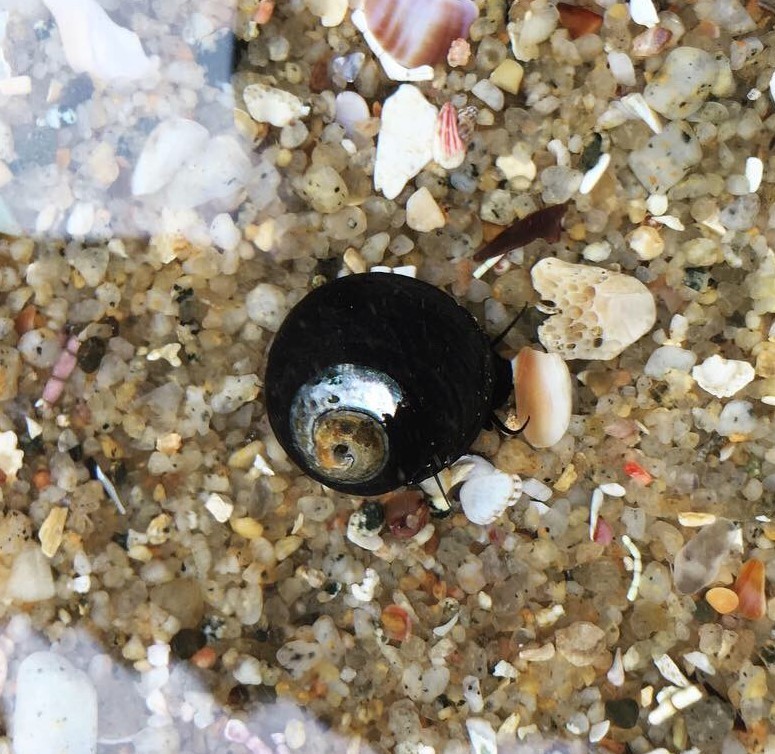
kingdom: Animalia
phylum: Mollusca
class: Gastropoda
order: Trochida
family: Tegulidae
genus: Tegula
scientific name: Tegula funebralis
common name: Black tegula
